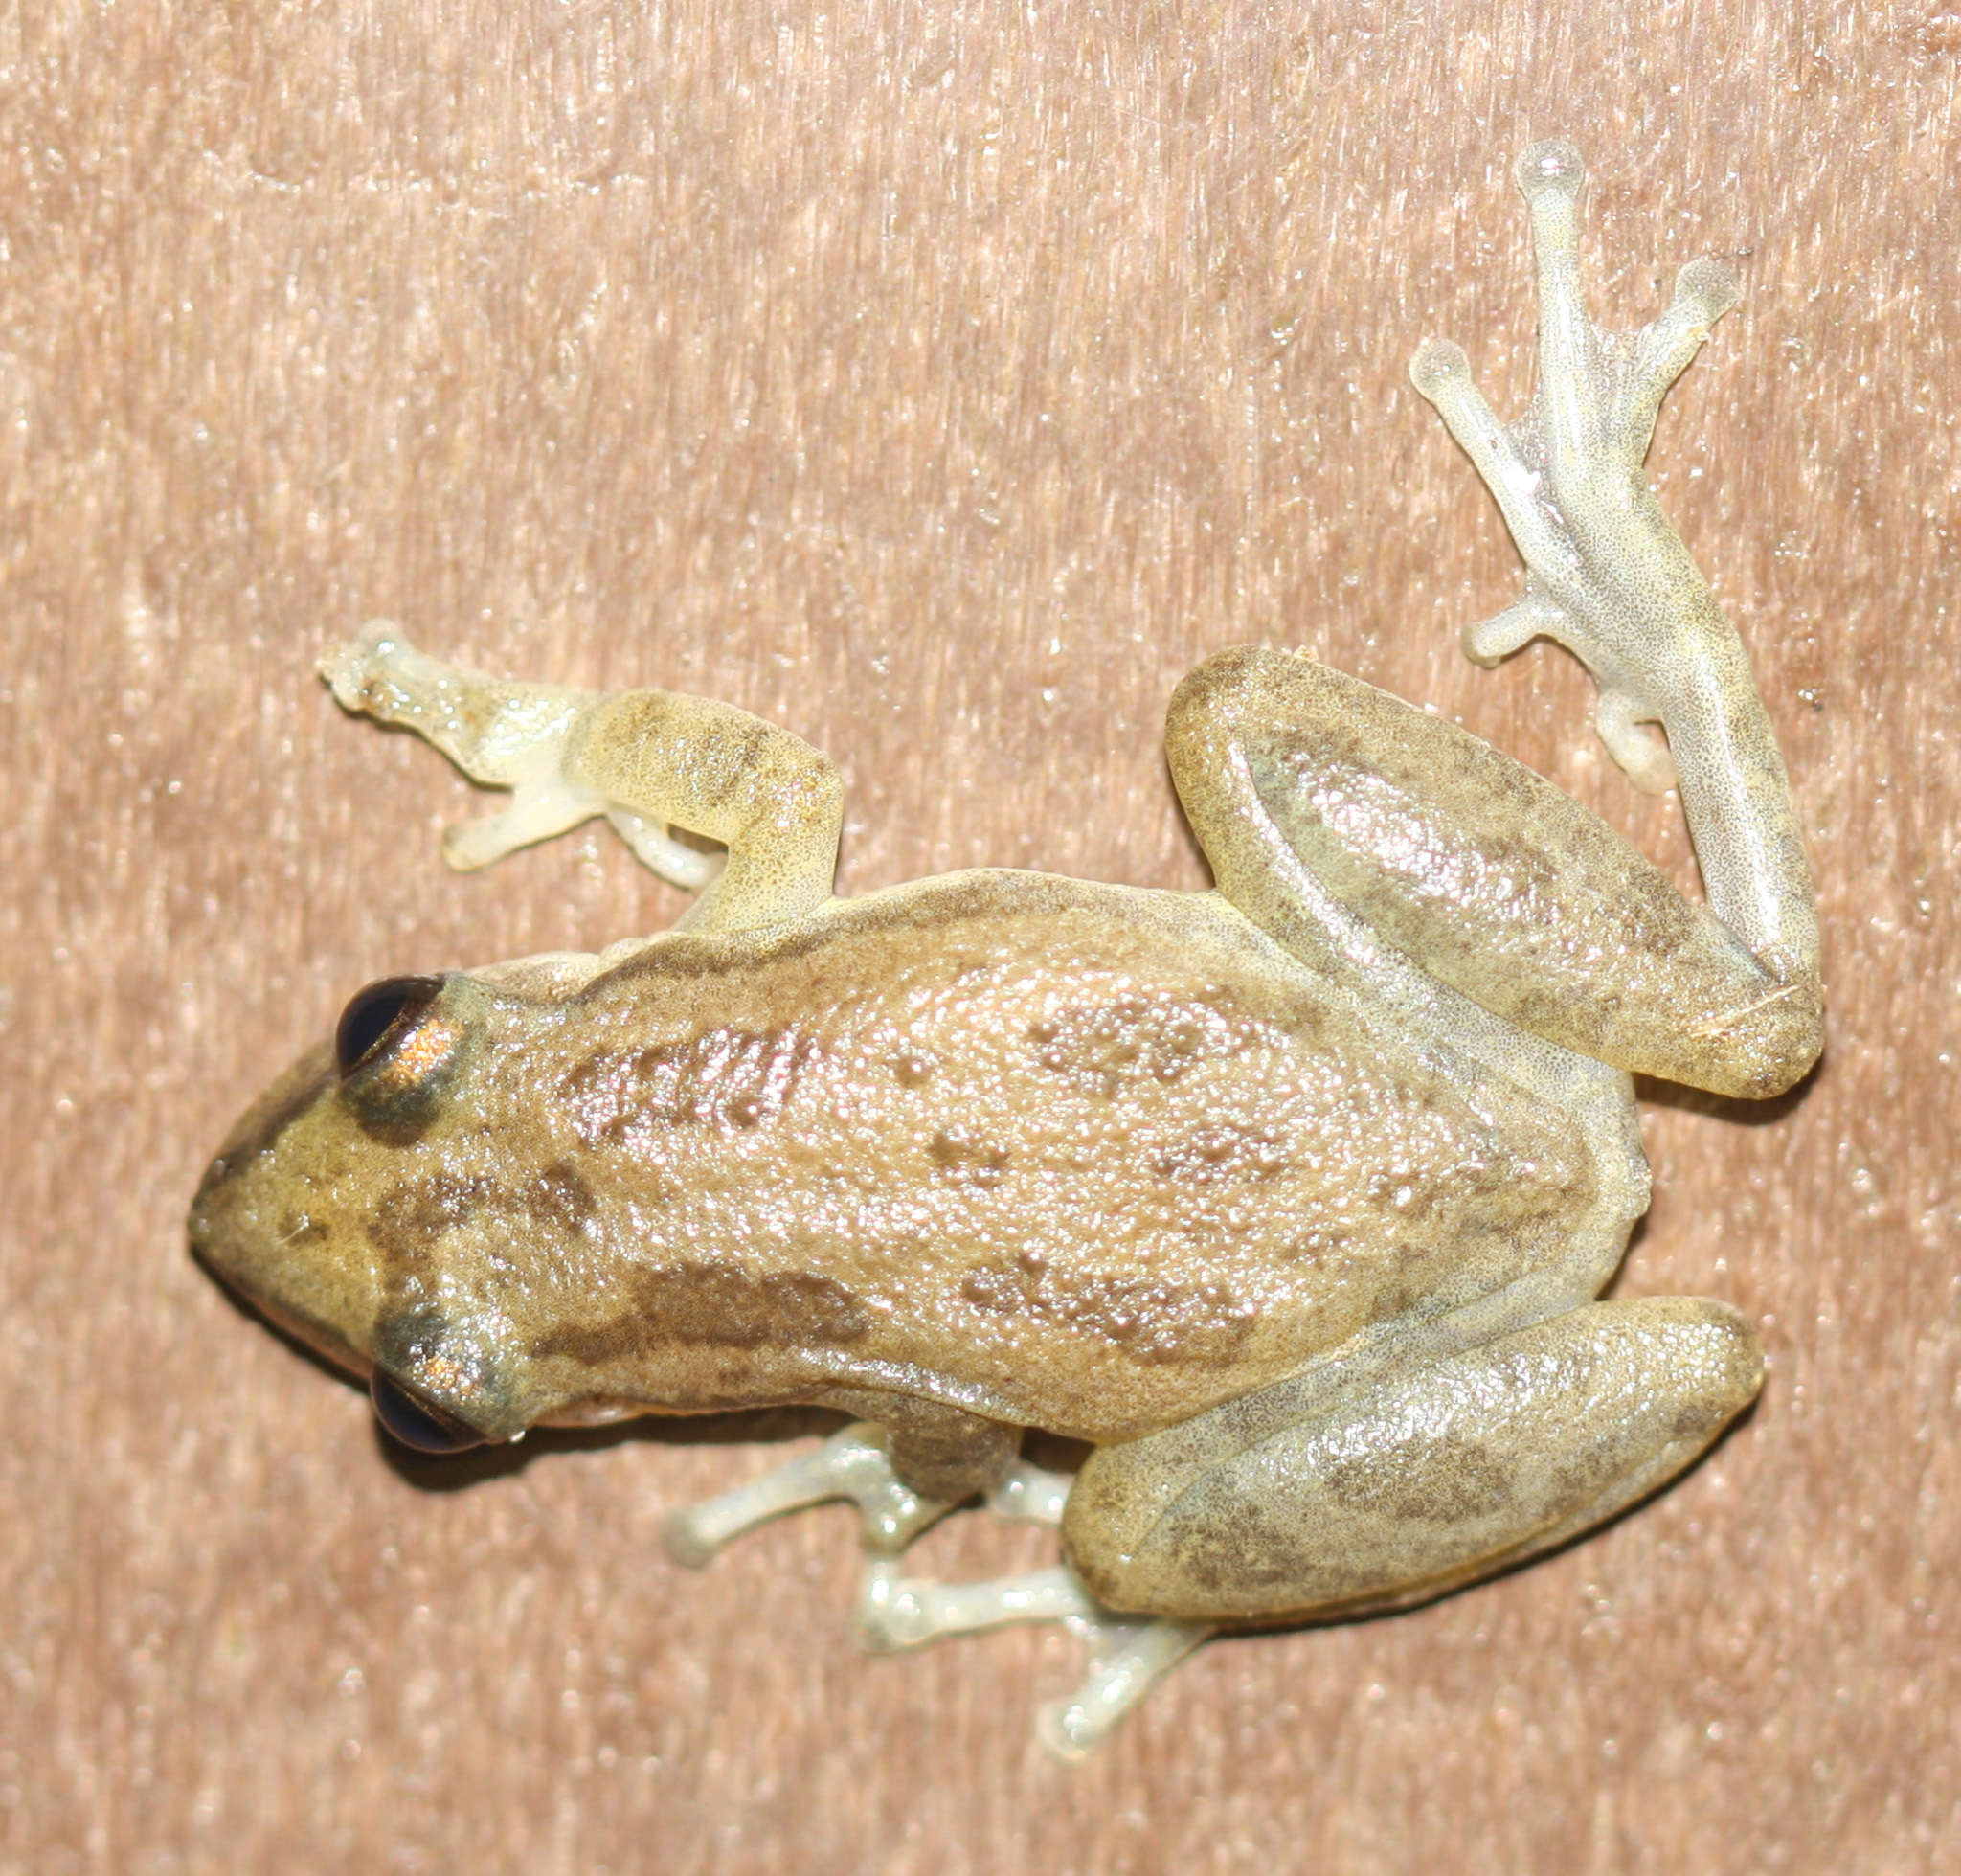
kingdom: Animalia
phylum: Chordata
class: Amphibia
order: Anura
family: Hylidae
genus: Scinax
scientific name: Scinax staufferi
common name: Stauffer's long-nosed treefrog
